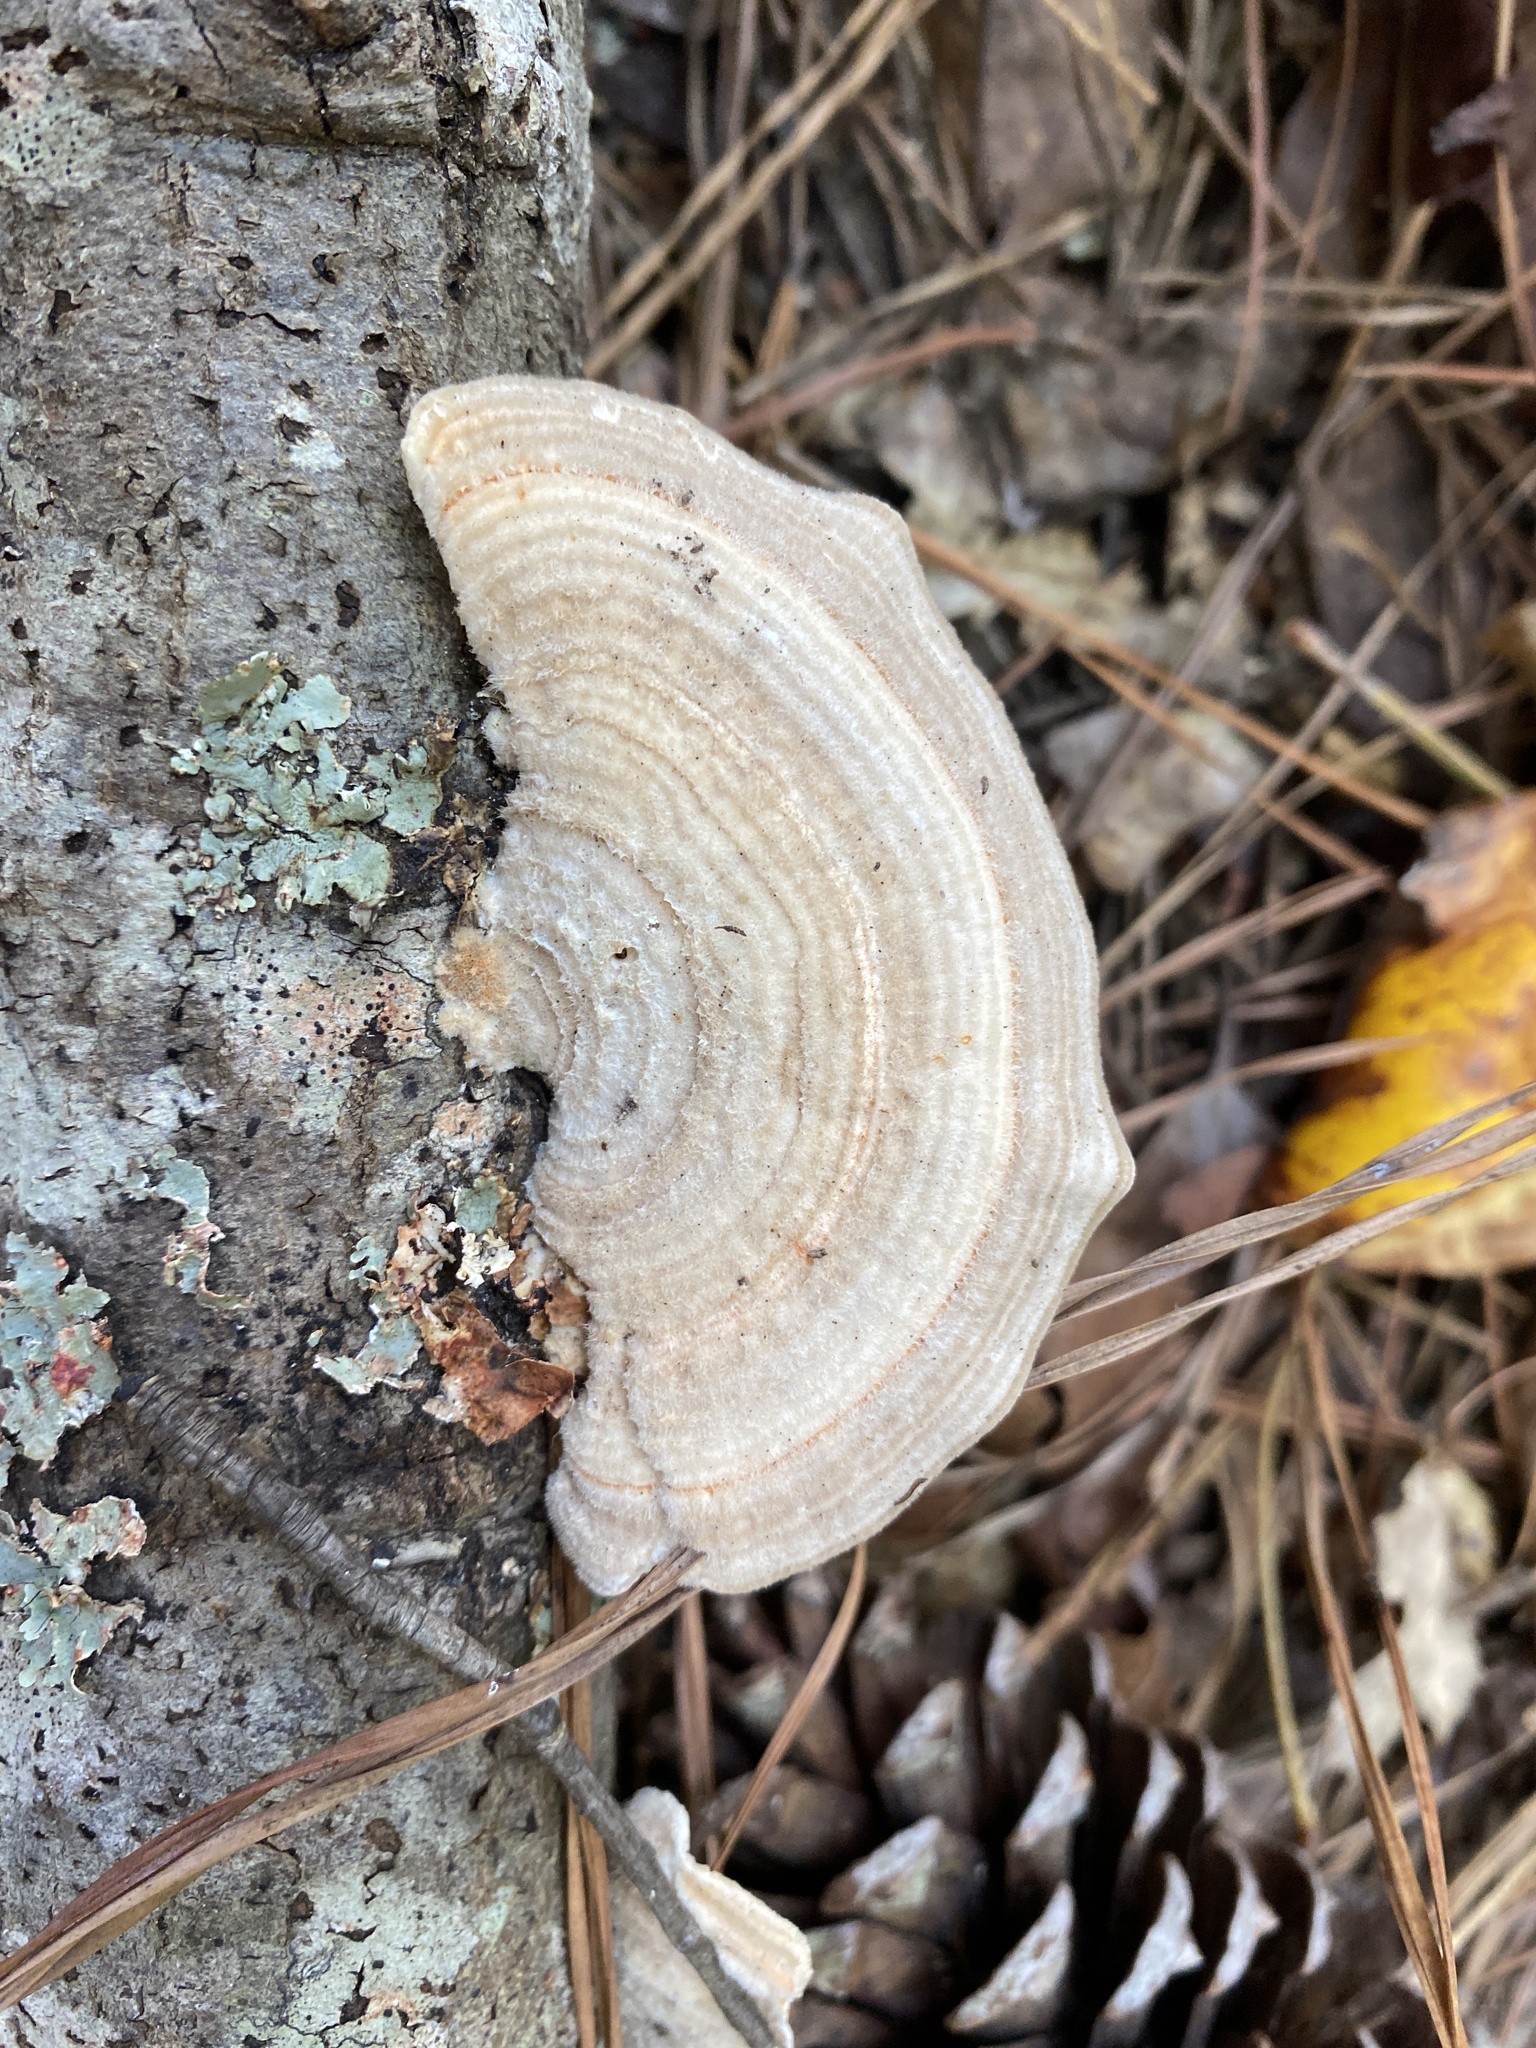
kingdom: Fungi
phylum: Basidiomycota
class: Agaricomycetes
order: Polyporales
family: Polyporaceae
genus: Lenzites
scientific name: Lenzites betulinus
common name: Birch mazegill
